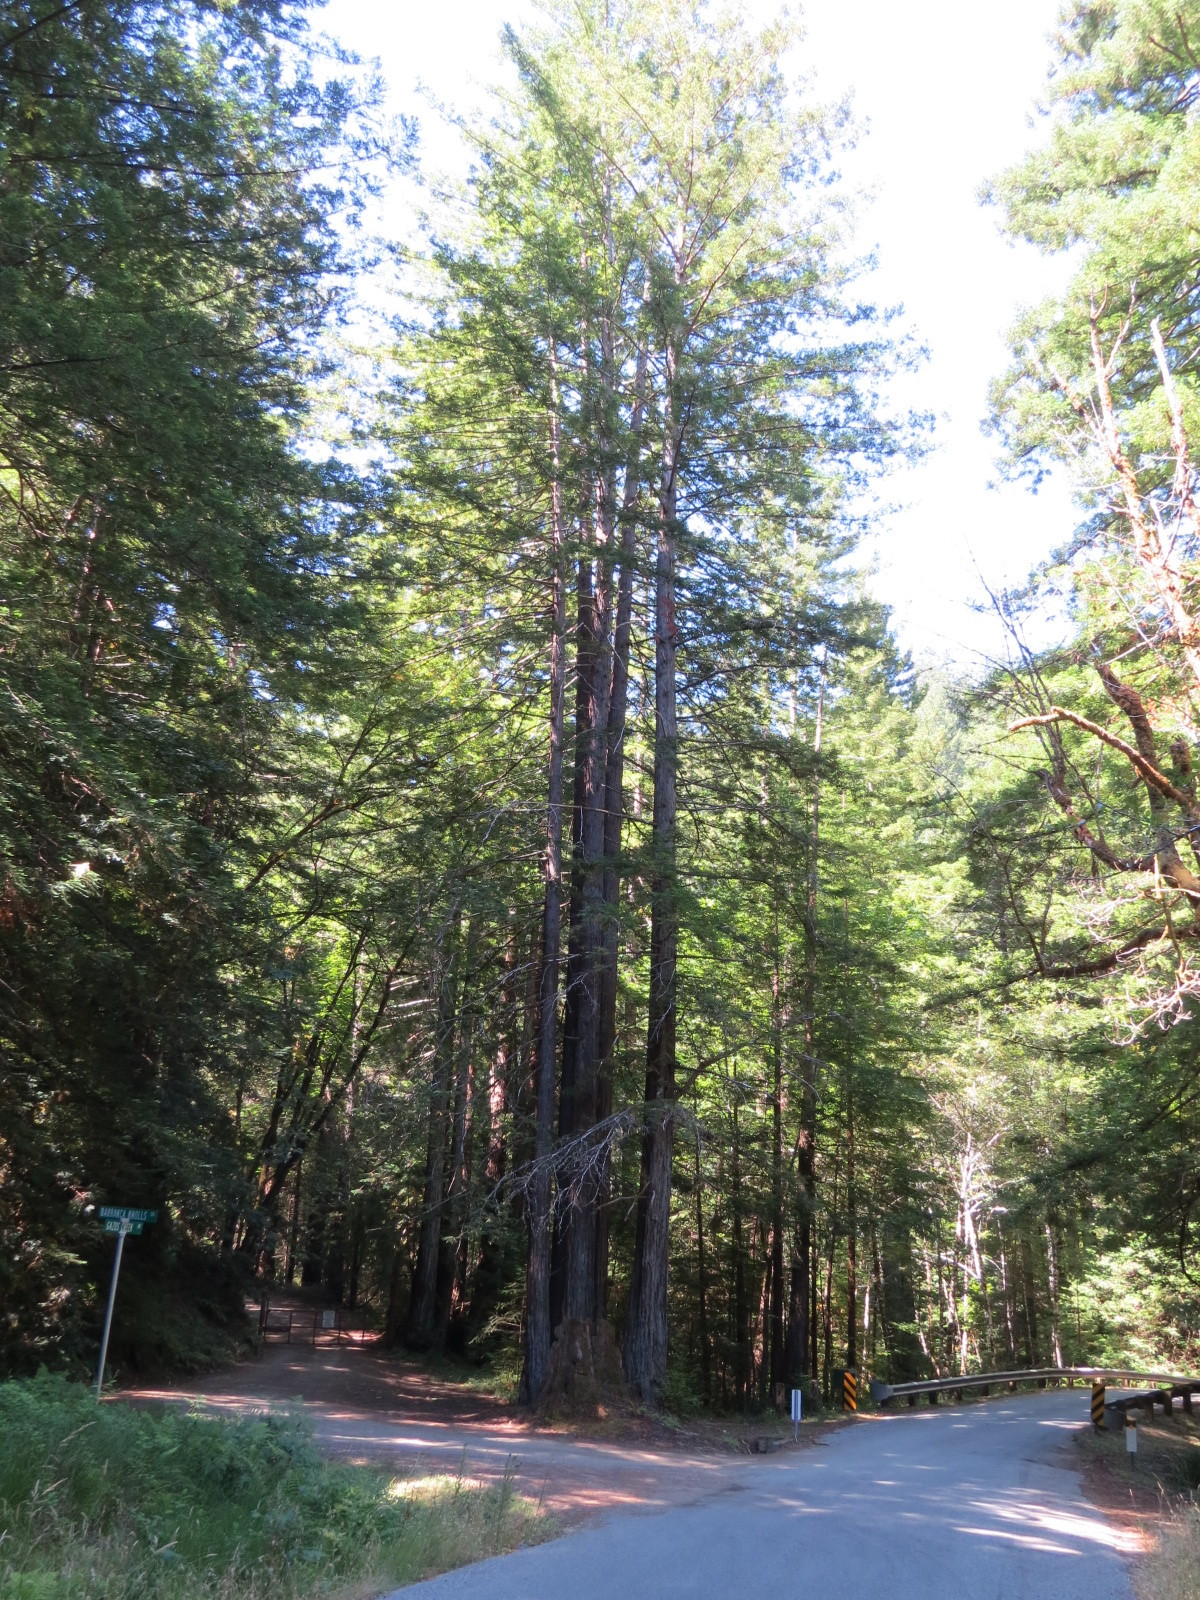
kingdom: Plantae
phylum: Tracheophyta
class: Pinopsida
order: Pinales
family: Cupressaceae
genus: Sequoia
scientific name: Sequoia sempervirens
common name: Coast redwood
